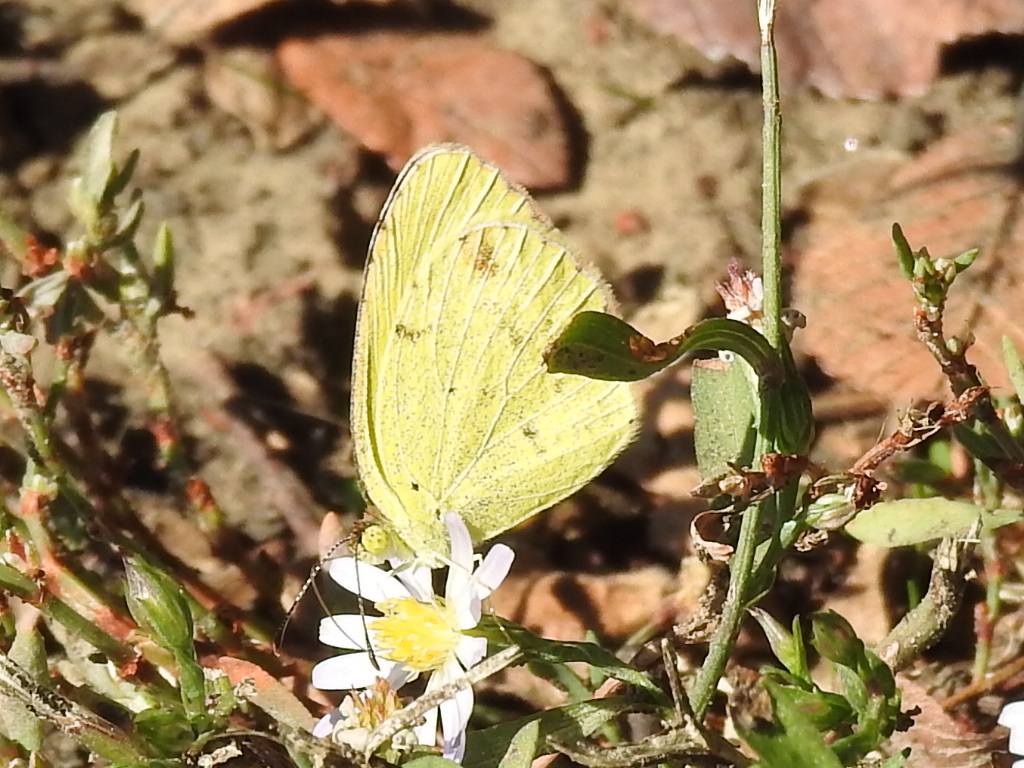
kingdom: Animalia
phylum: Arthropoda
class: Insecta
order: Lepidoptera
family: Pieridae
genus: Pyrisitia
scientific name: Pyrisitia lisa
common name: Little yellow
